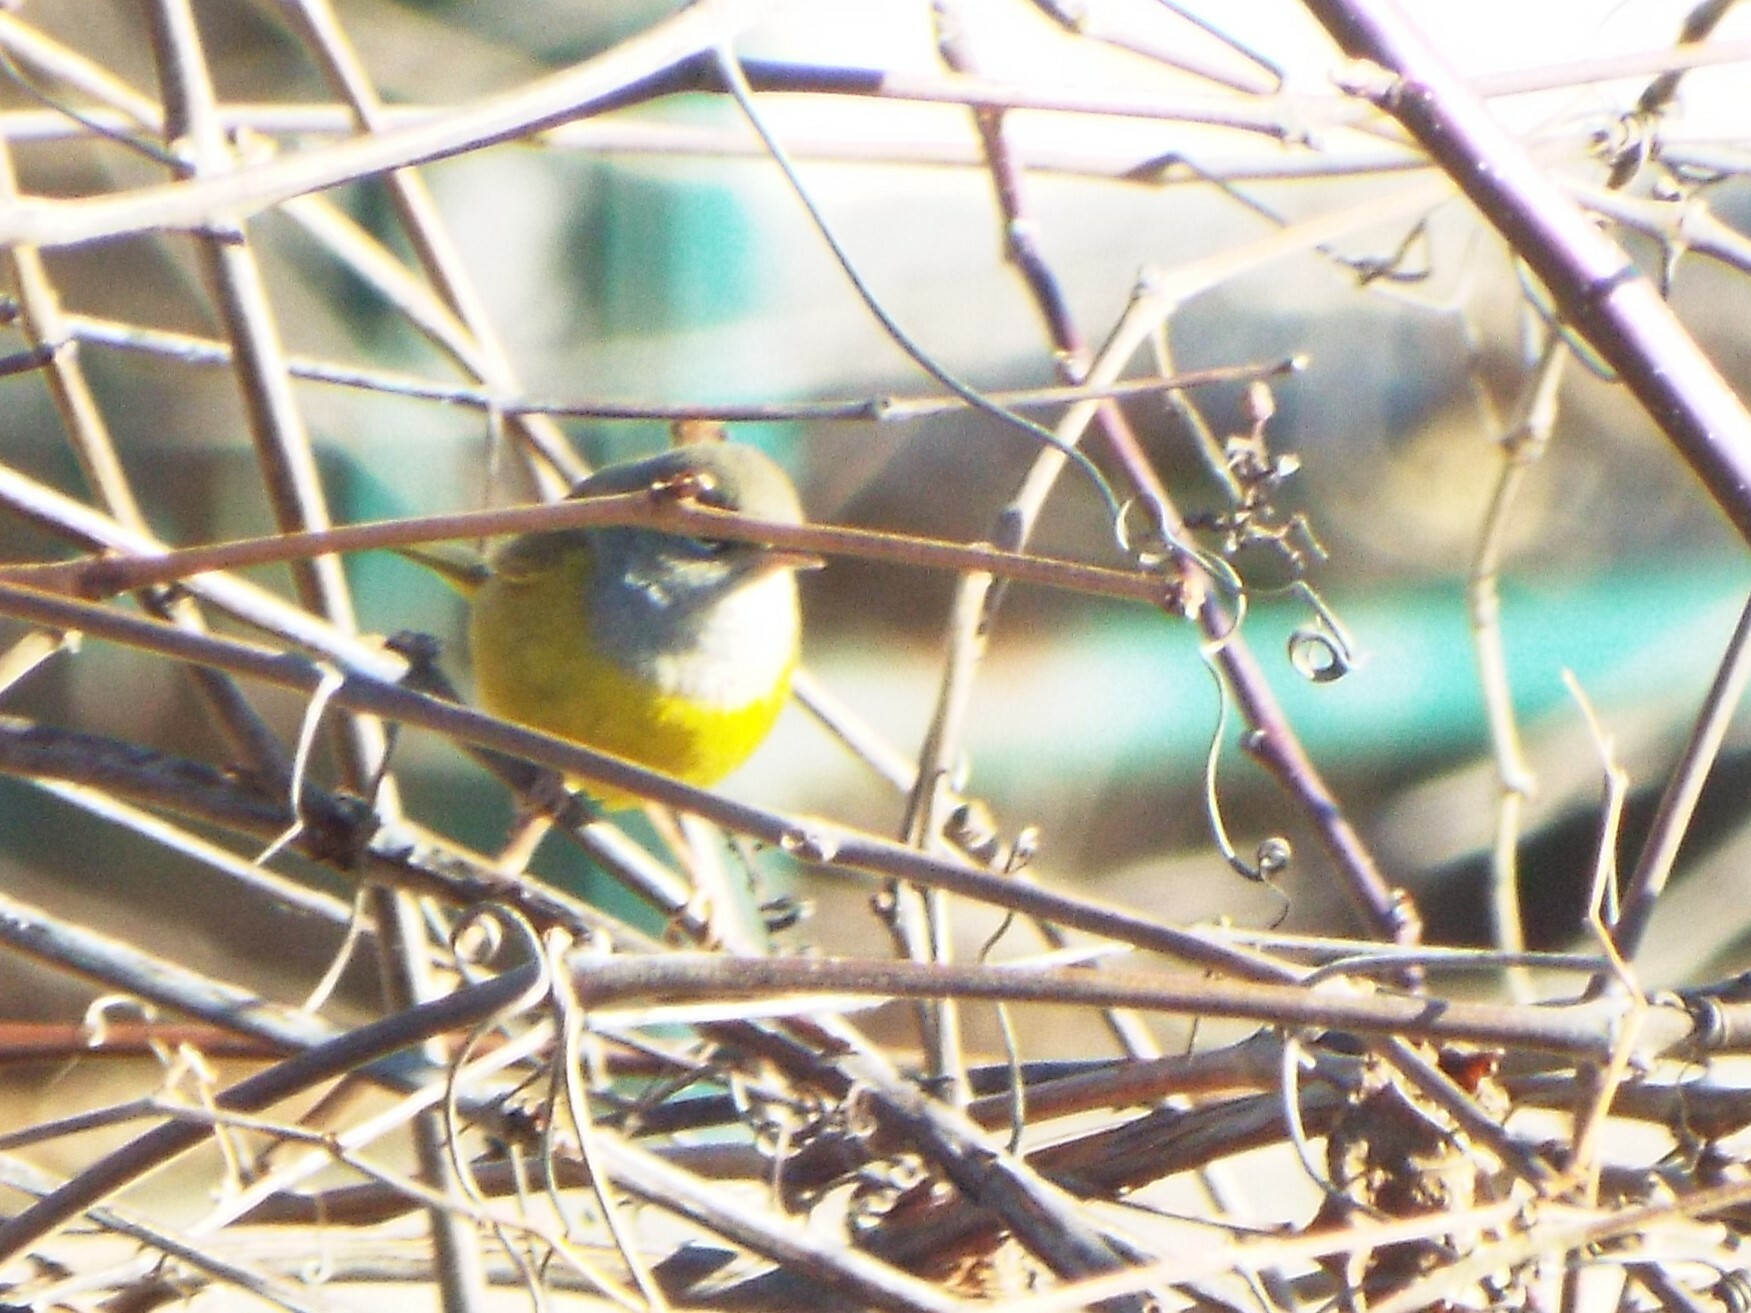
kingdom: Animalia
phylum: Chordata
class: Aves
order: Passeriformes
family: Parulidae
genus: Geothlypis
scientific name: Geothlypis tolmiei
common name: Macgillivray's warbler
